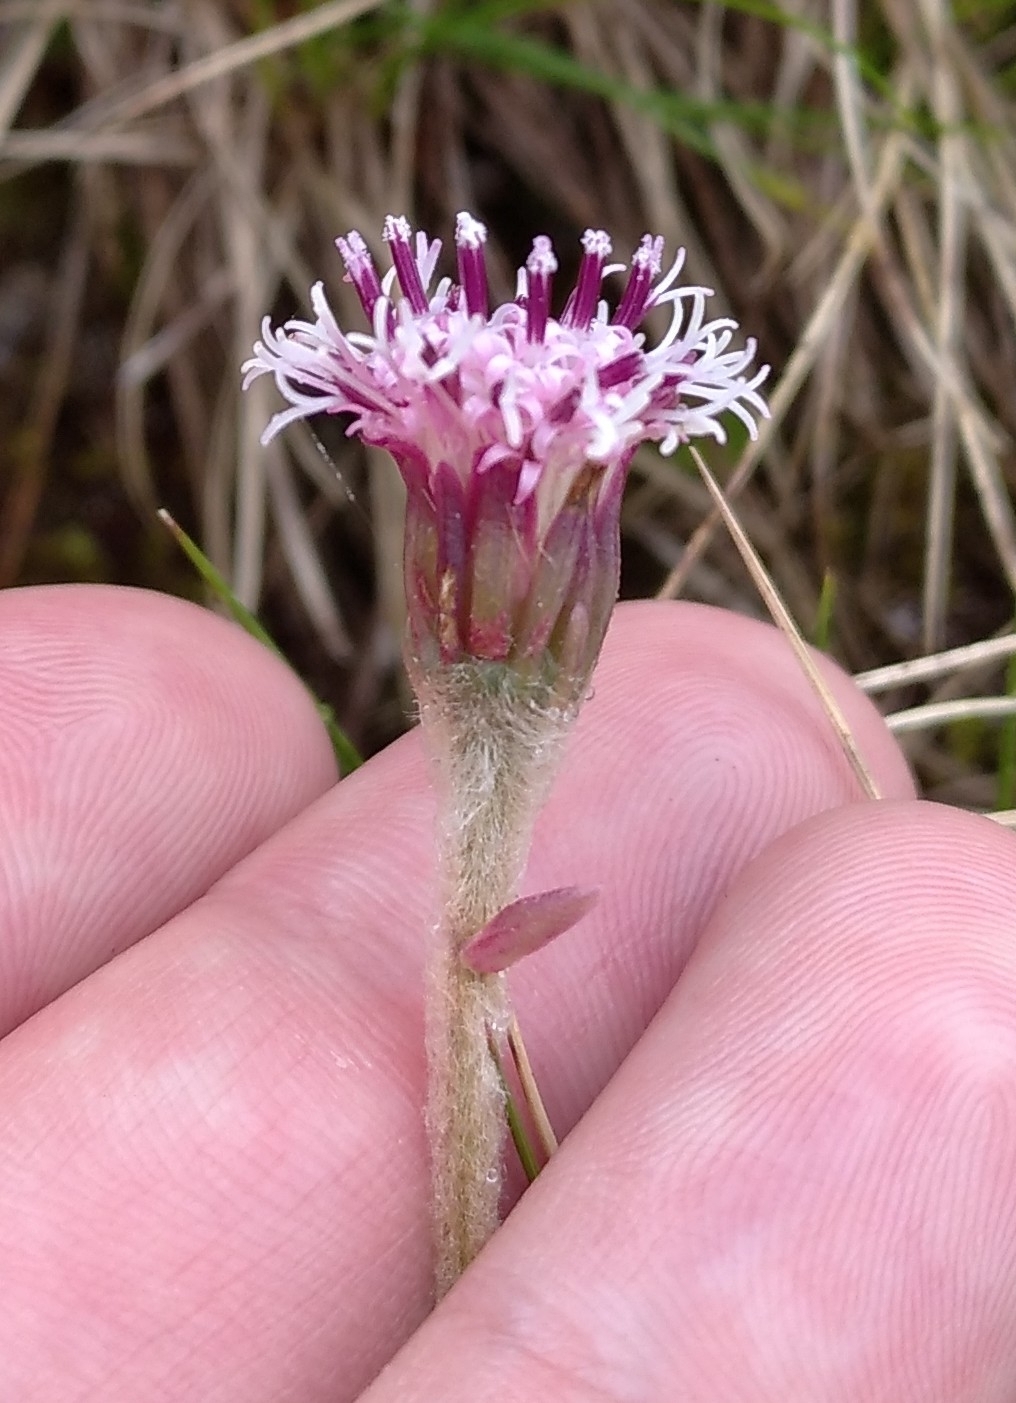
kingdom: Plantae
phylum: Tracheophyta
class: Magnoliopsida
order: Asterales
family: Asteraceae
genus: Homogyne
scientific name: Homogyne alpina
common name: Purple colt's-foot
